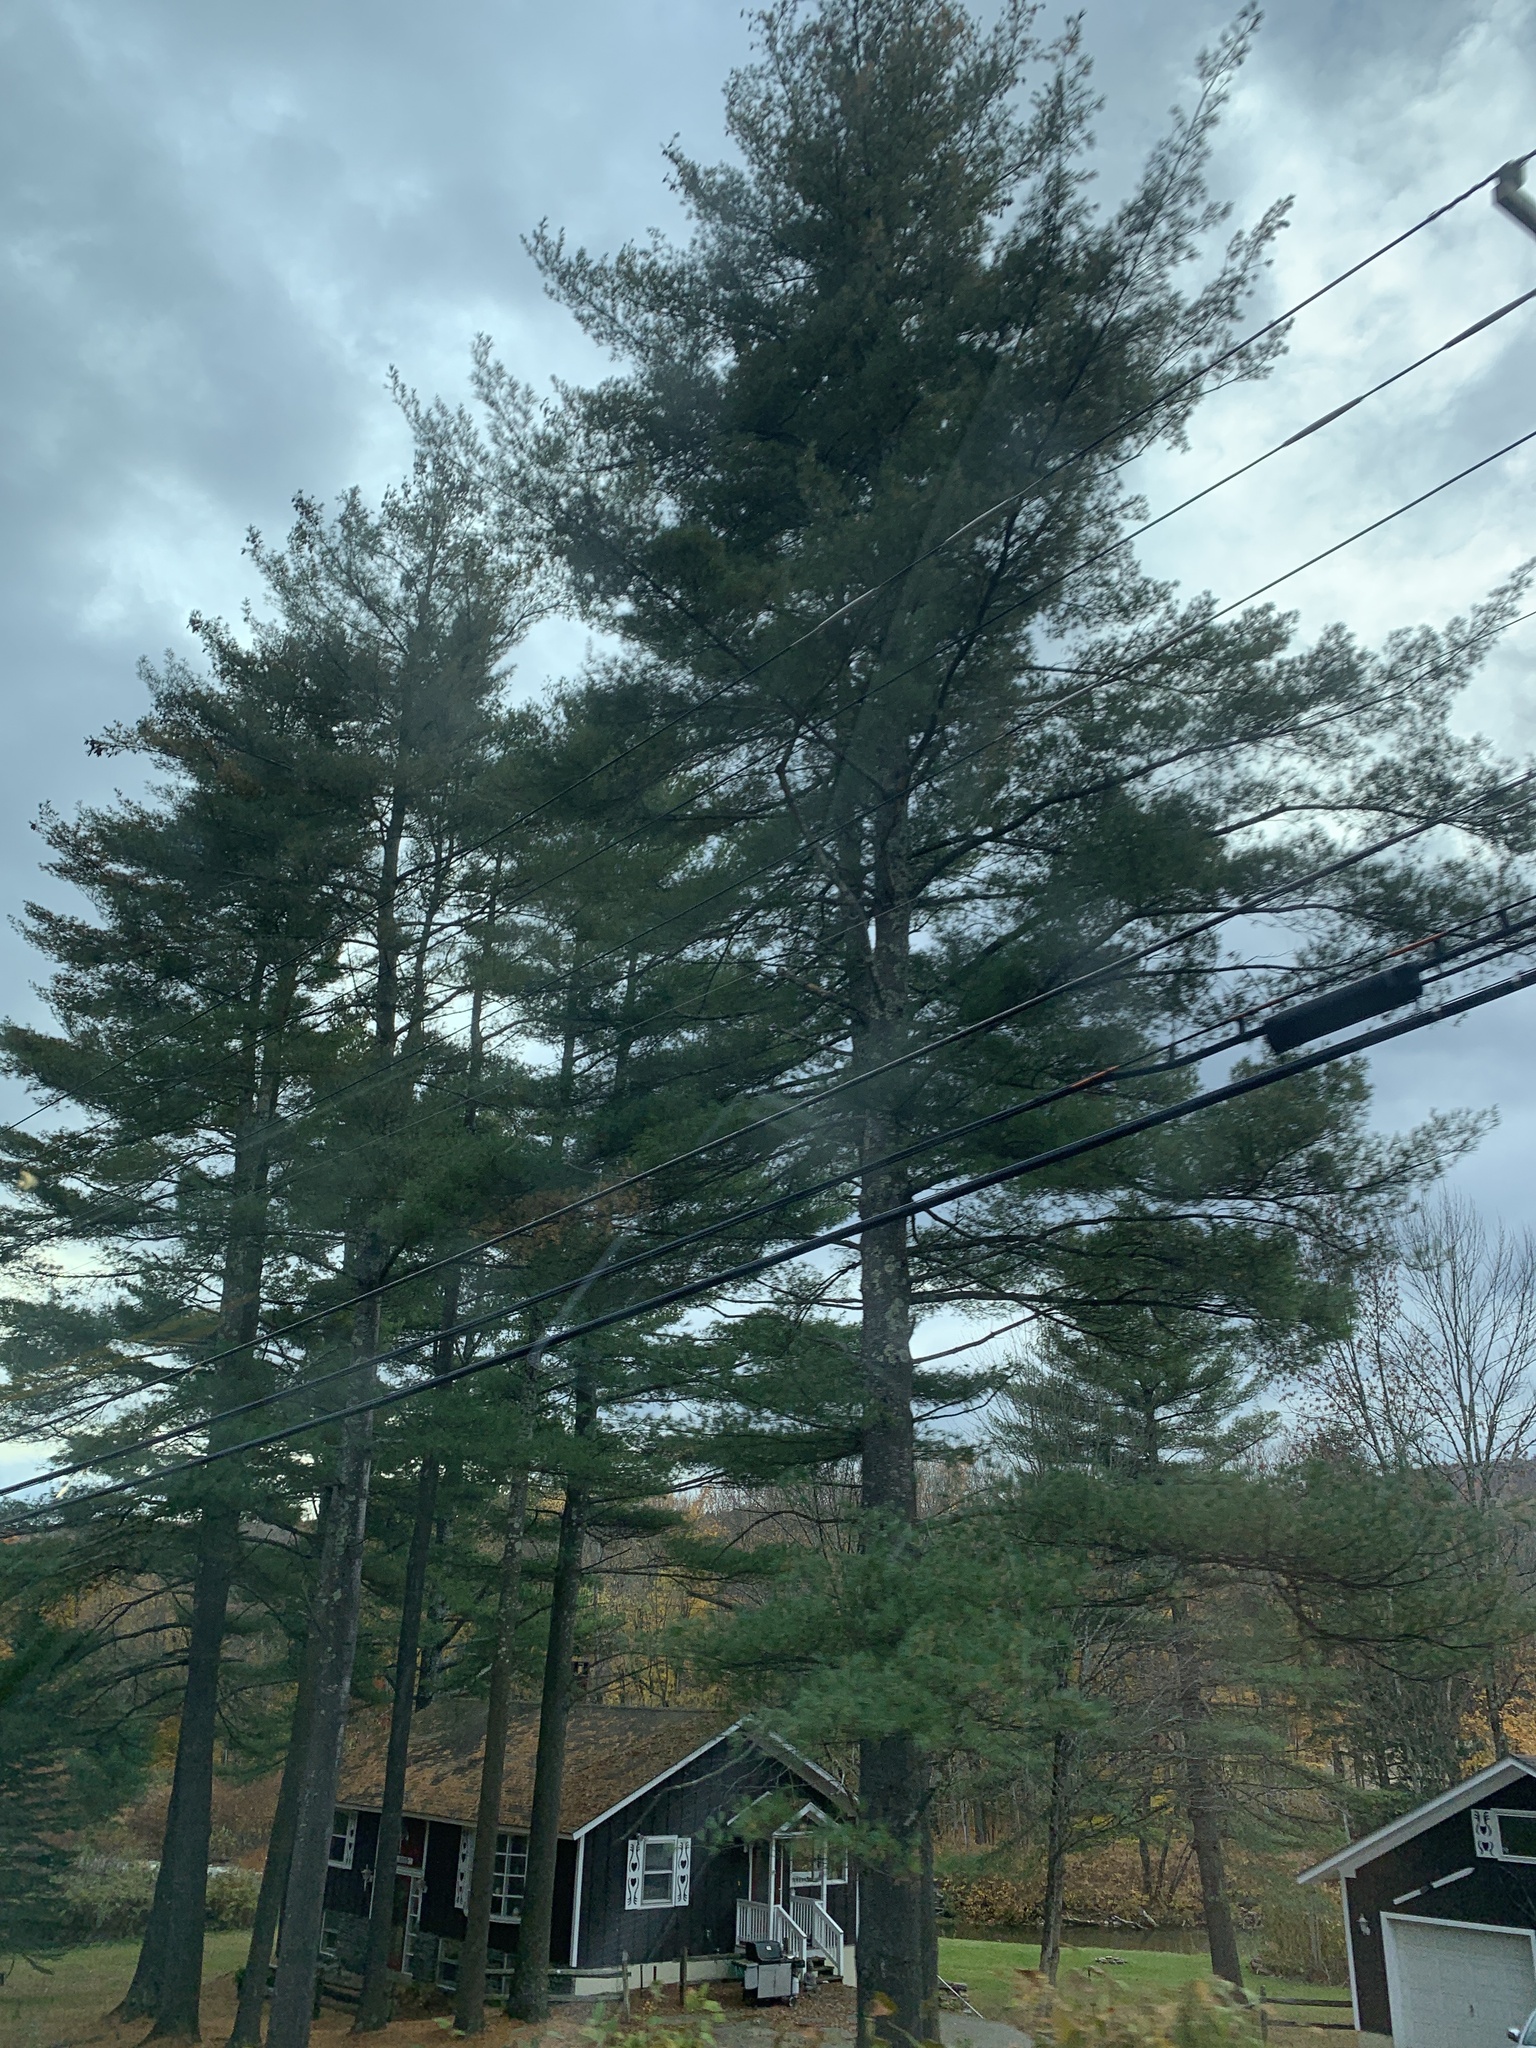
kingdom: Plantae
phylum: Tracheophyta
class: Pinopsida
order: Pinales
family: Pinaceae
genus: Pinus
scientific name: Pinus strobus
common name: Weymouth pine
